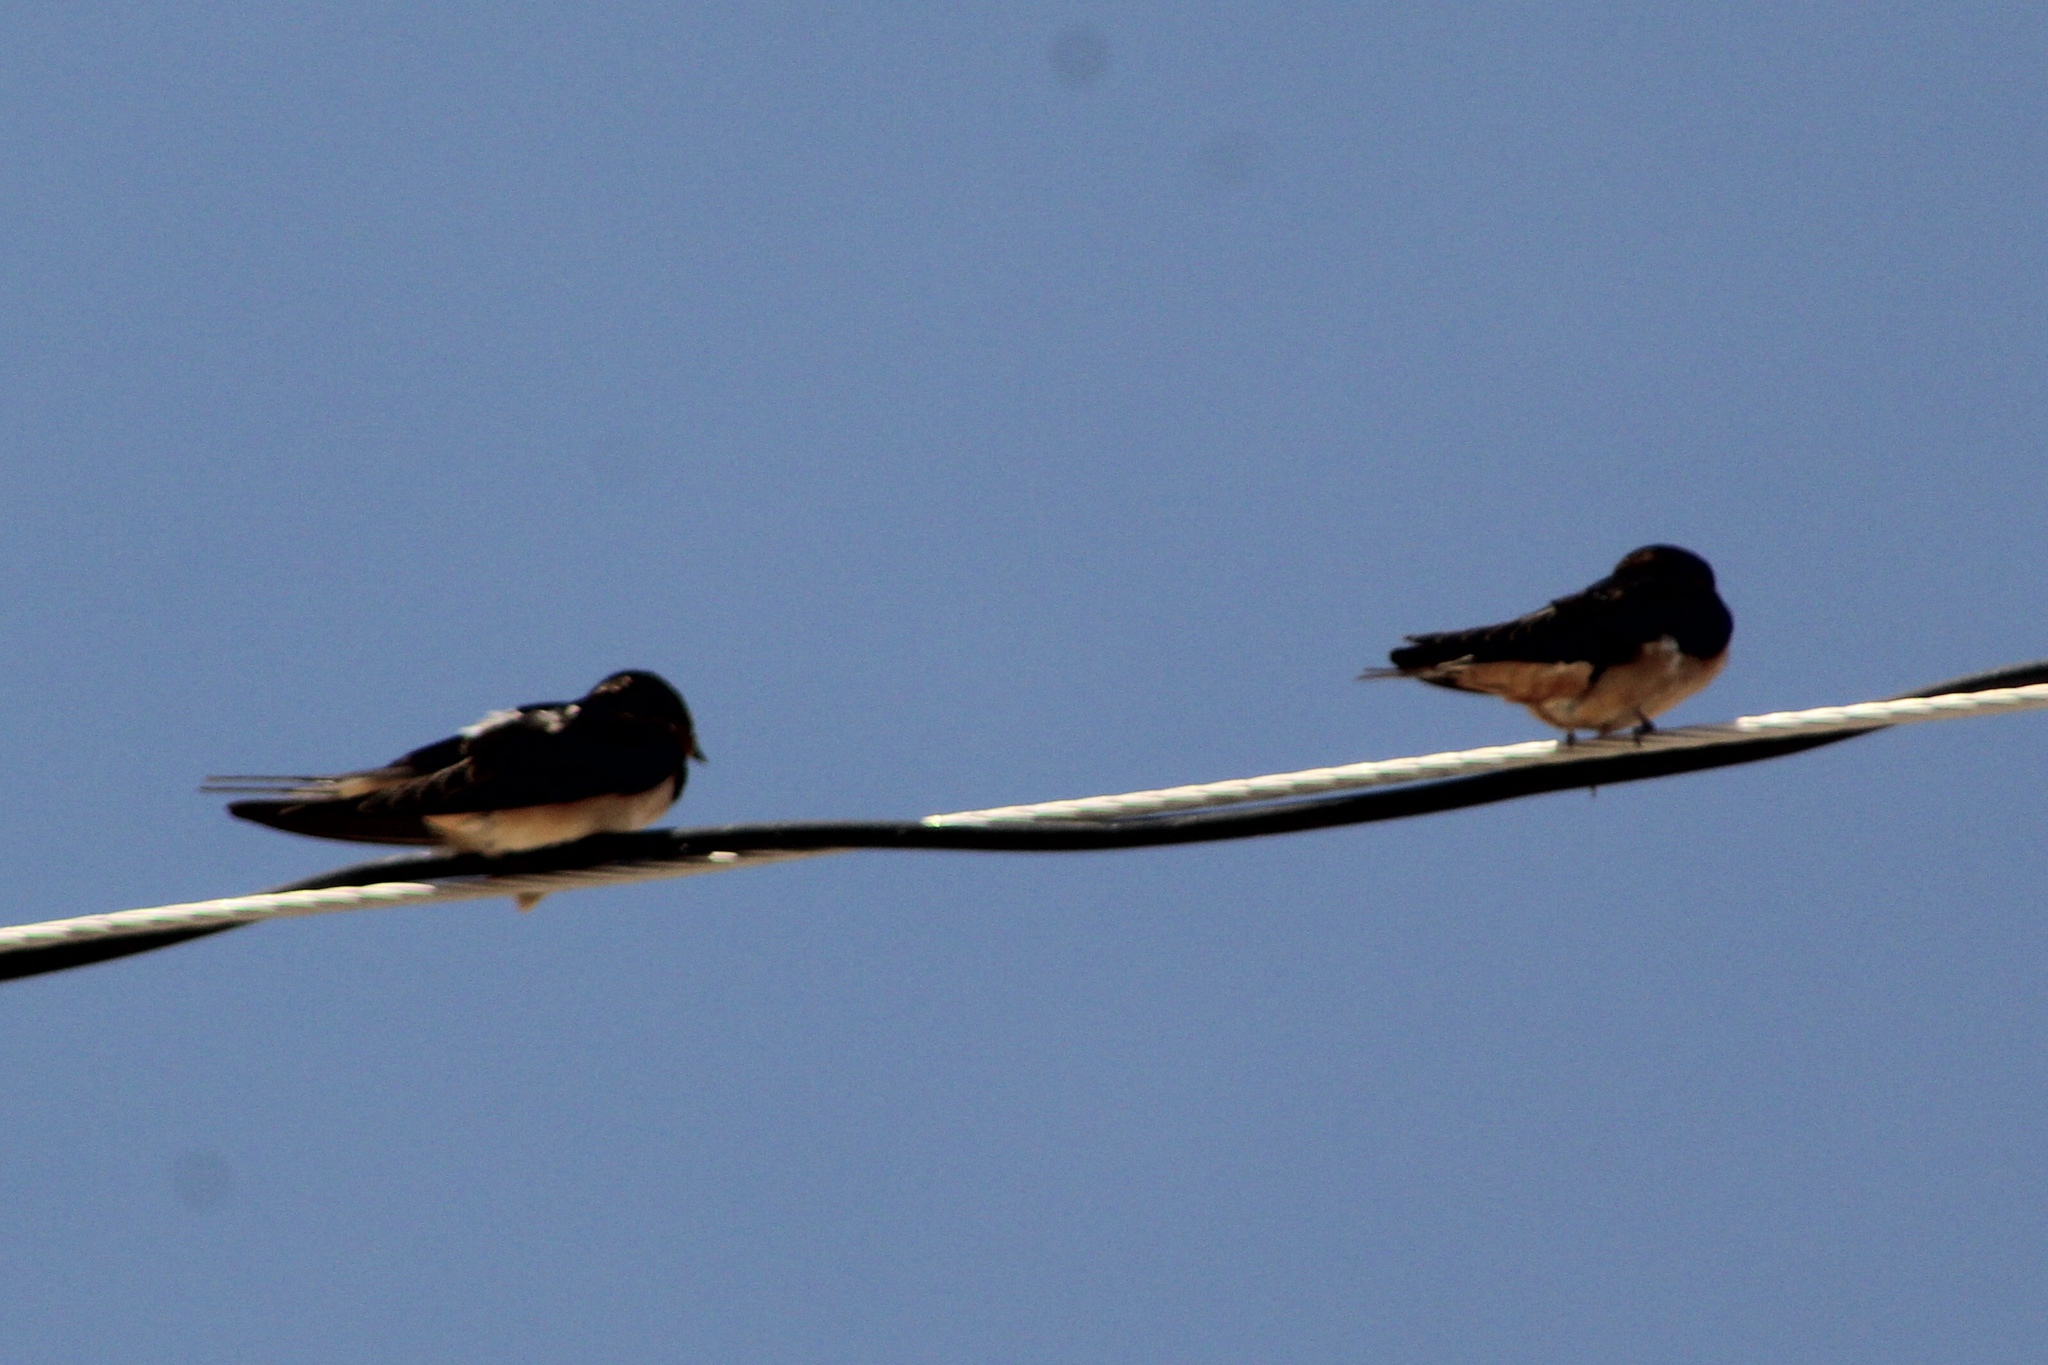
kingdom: Animalia
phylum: Chordata
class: Aves
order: Passeriformes
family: Hirundinidae
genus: Hirundo
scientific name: Hirundo rustica
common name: Barn swallow
